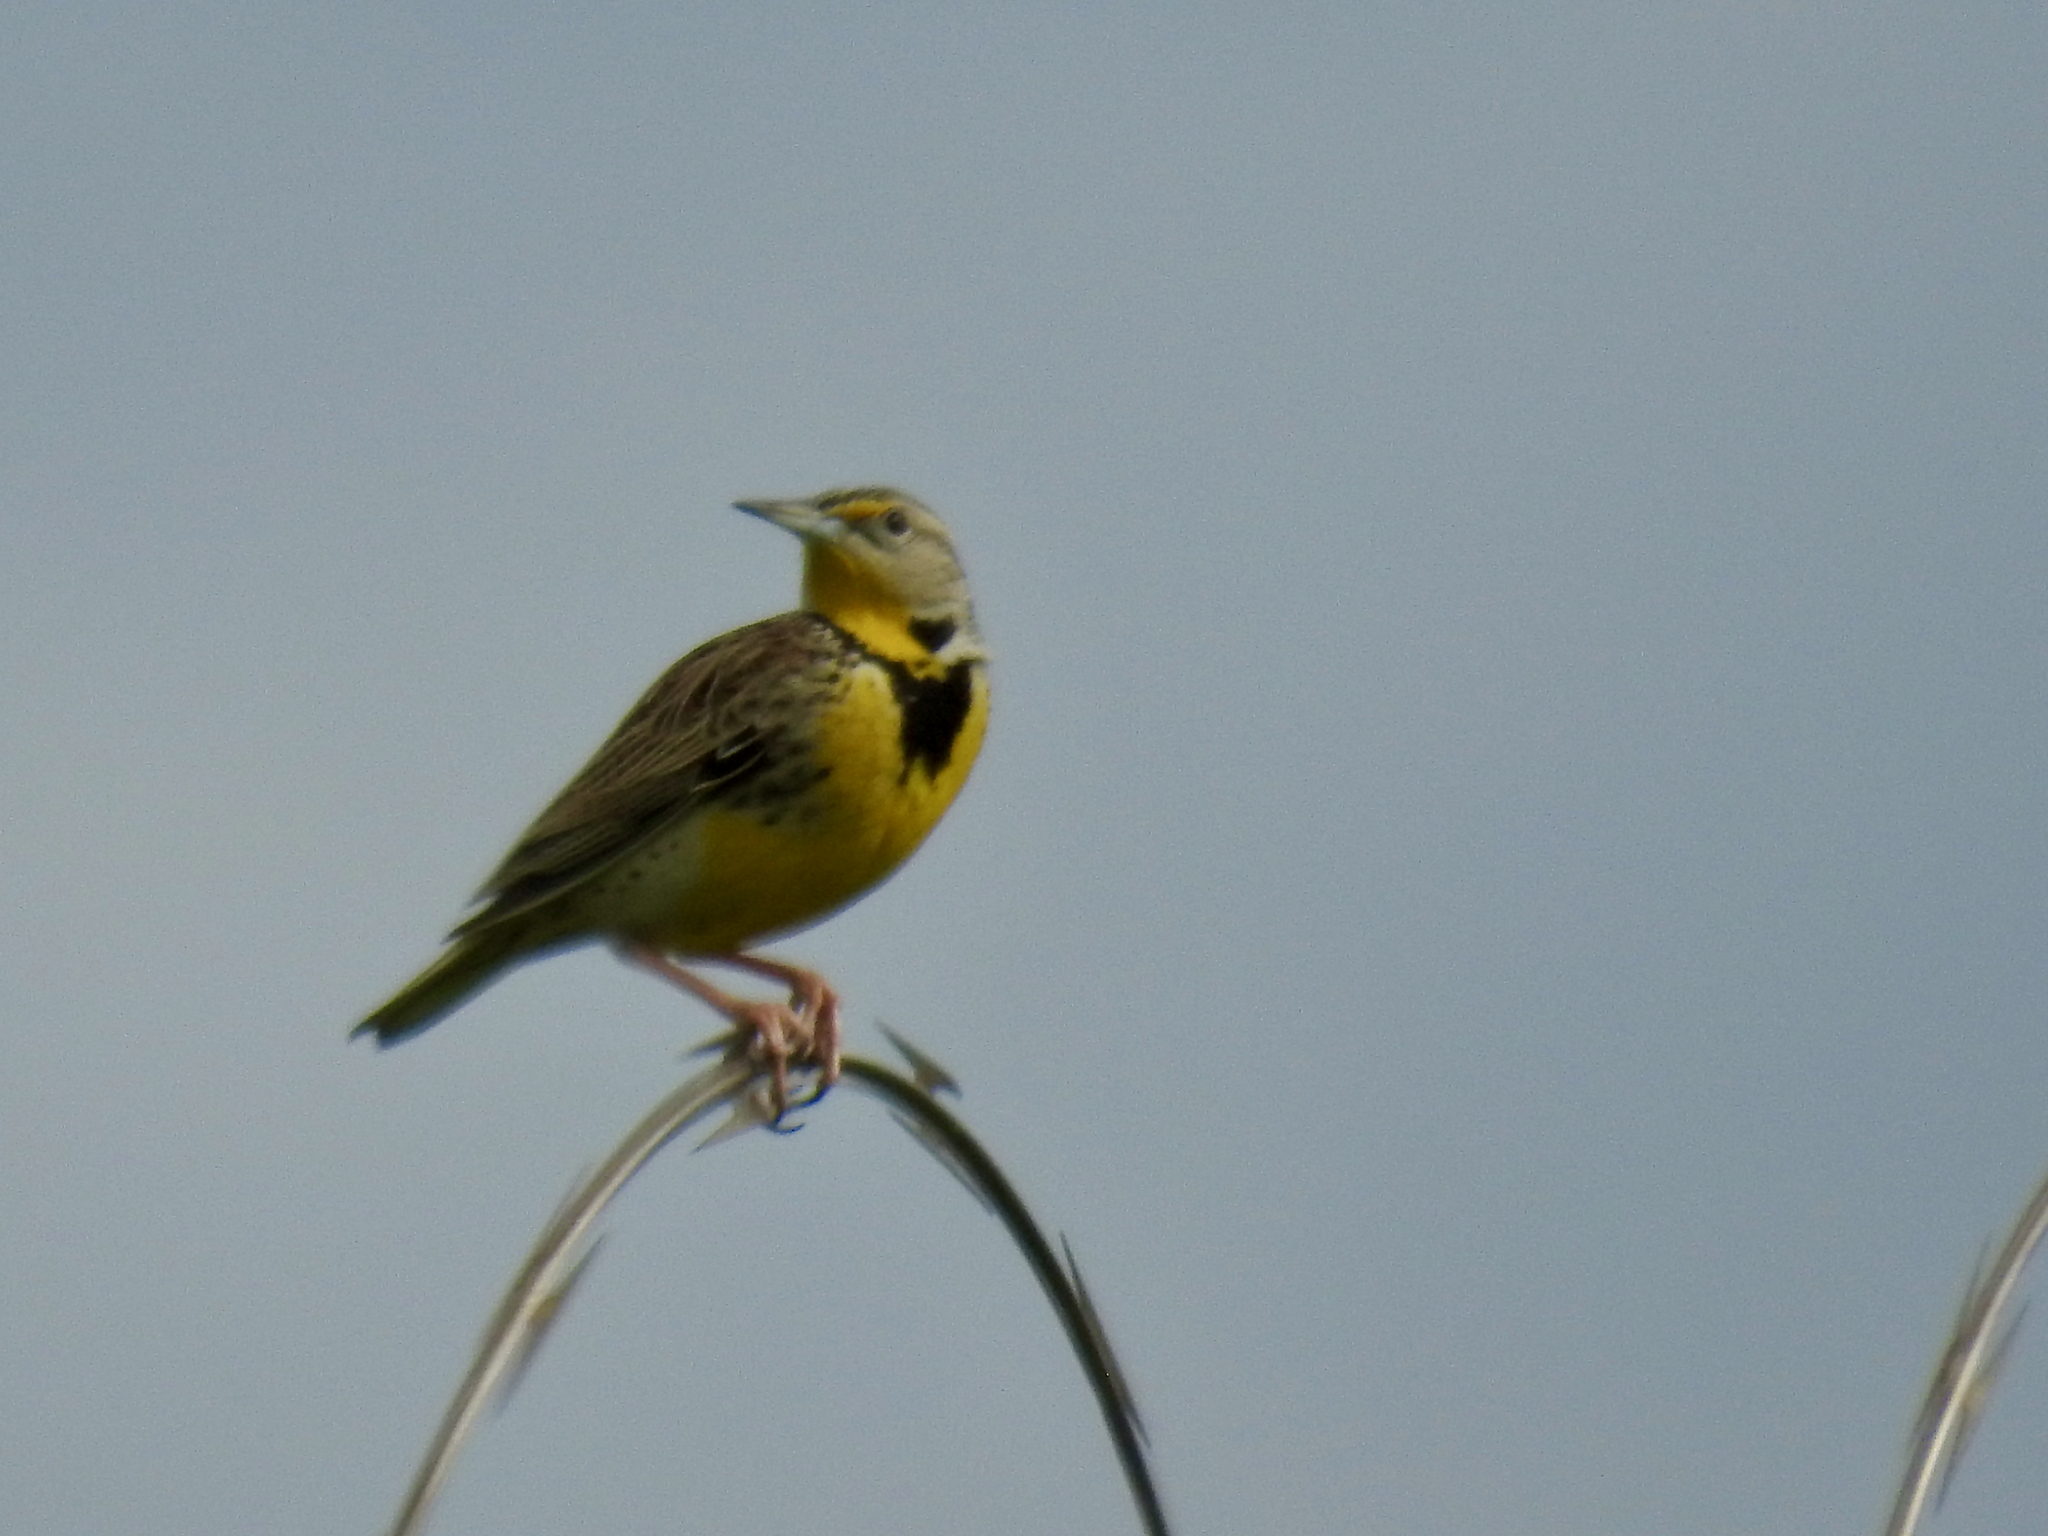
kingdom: Animalia
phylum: Chordata
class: Aves
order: Passeriformes
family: Icteridae
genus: Sturnella
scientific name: Sturnella neglecta
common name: Western meadowlark
